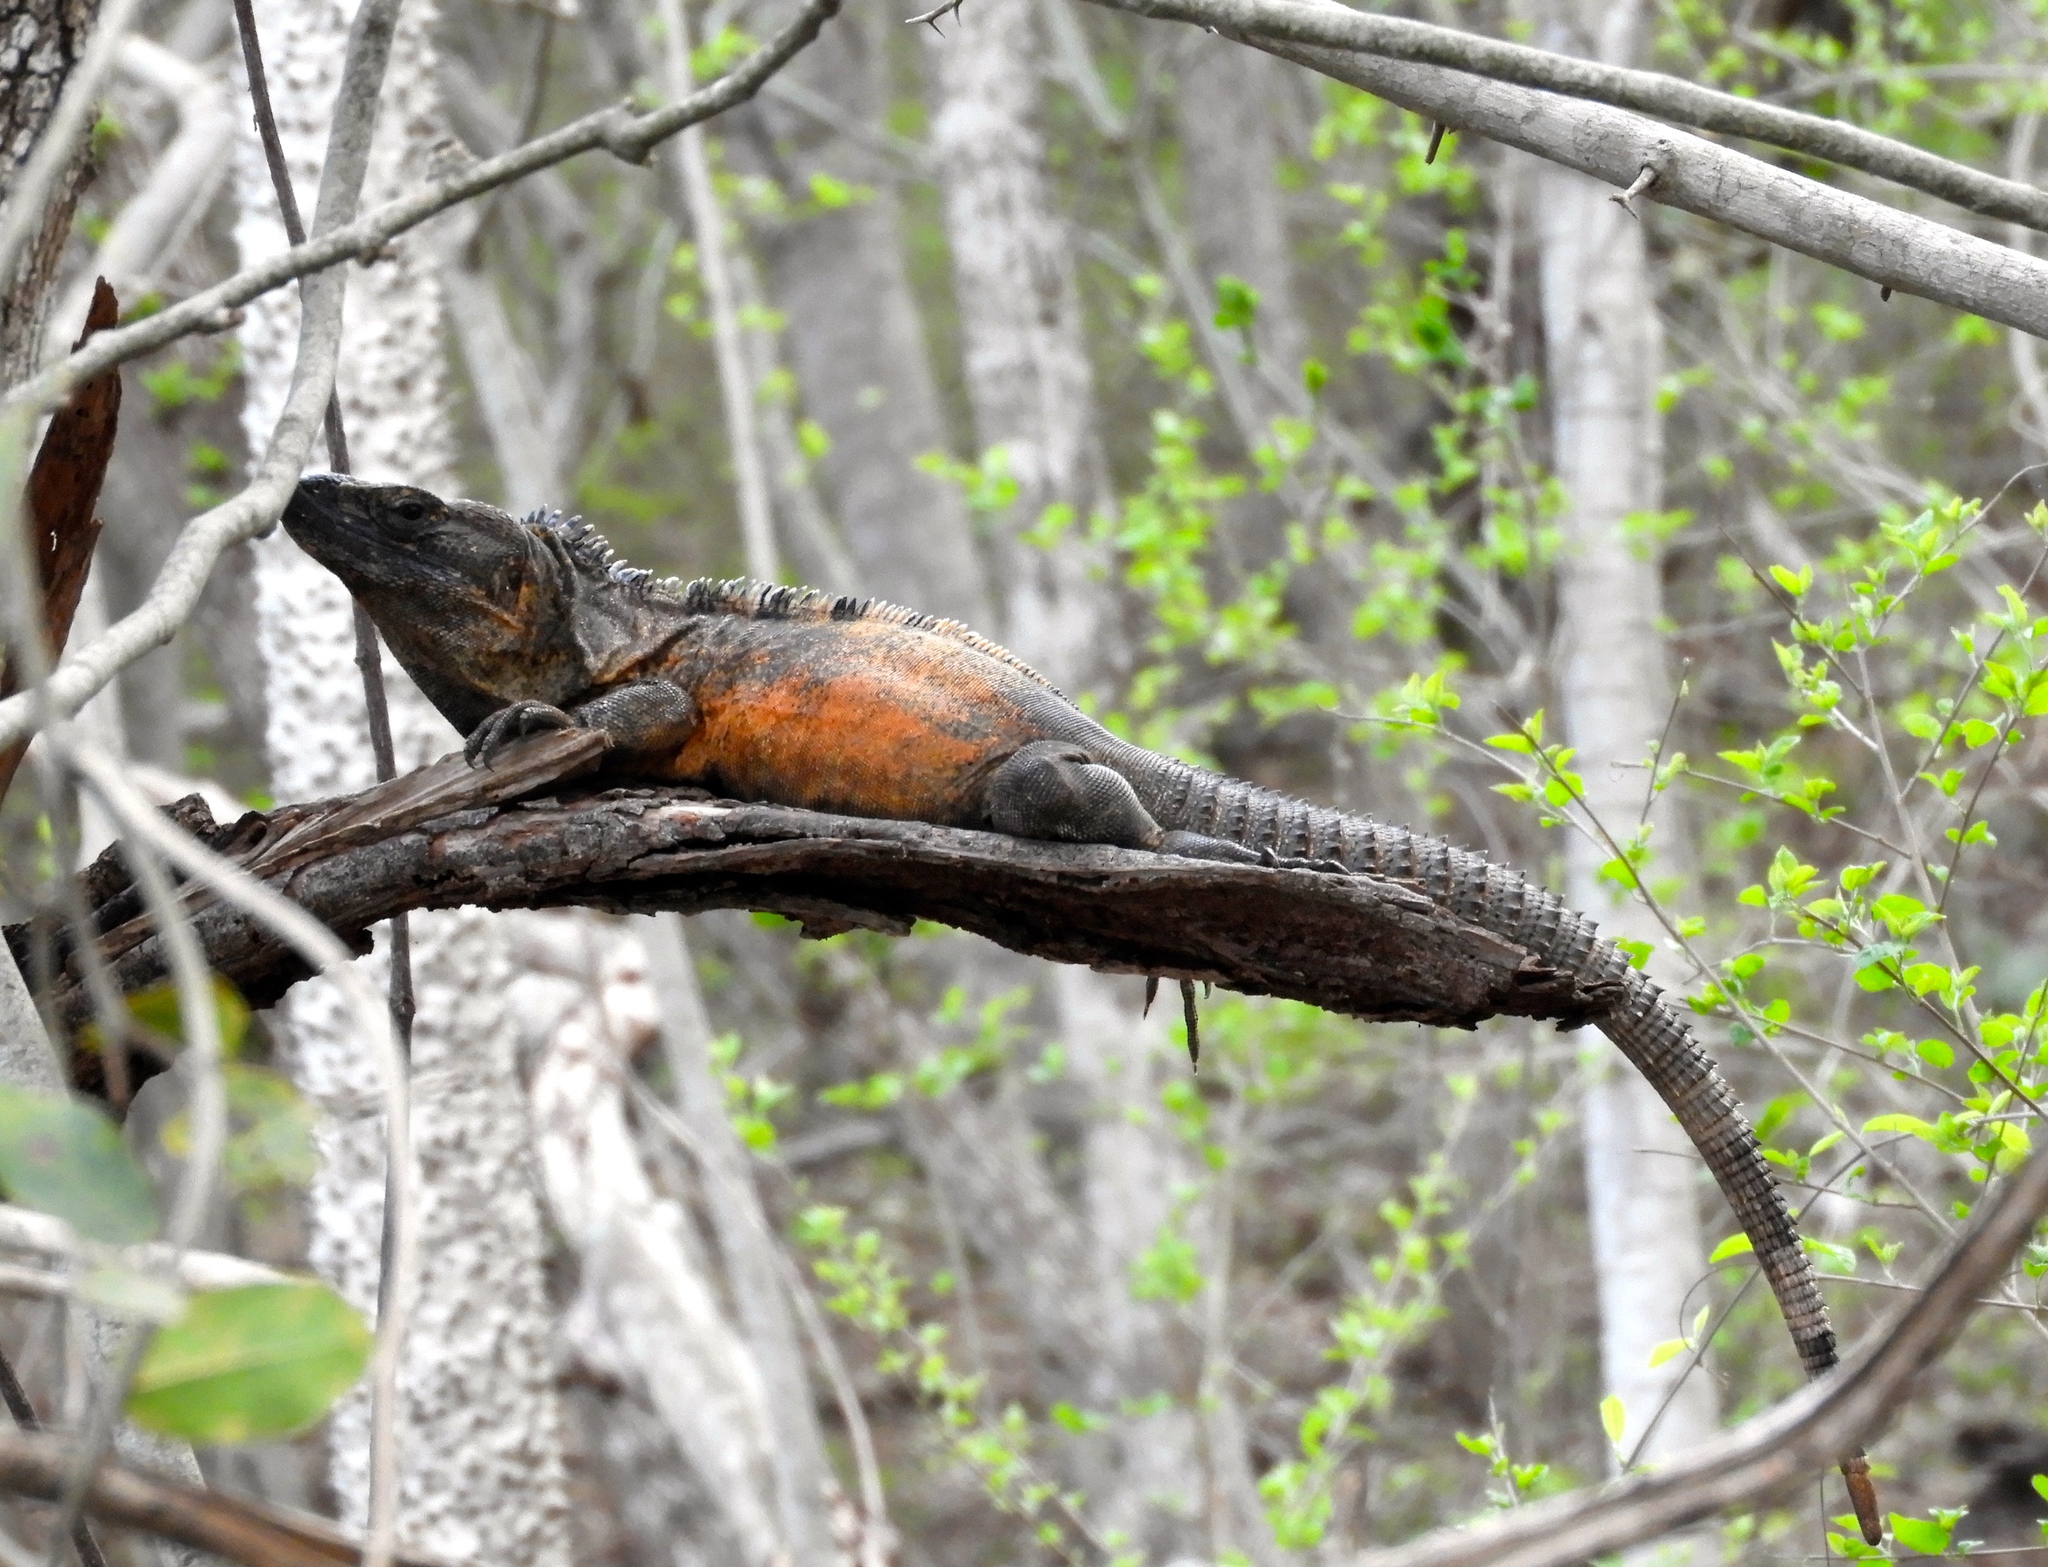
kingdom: Animalia
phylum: Chordata
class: Squamata
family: Iguanidae
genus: Ctenosaura
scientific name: Ctenosaura pectinata
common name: Guerreran spiny-tailed iguana
